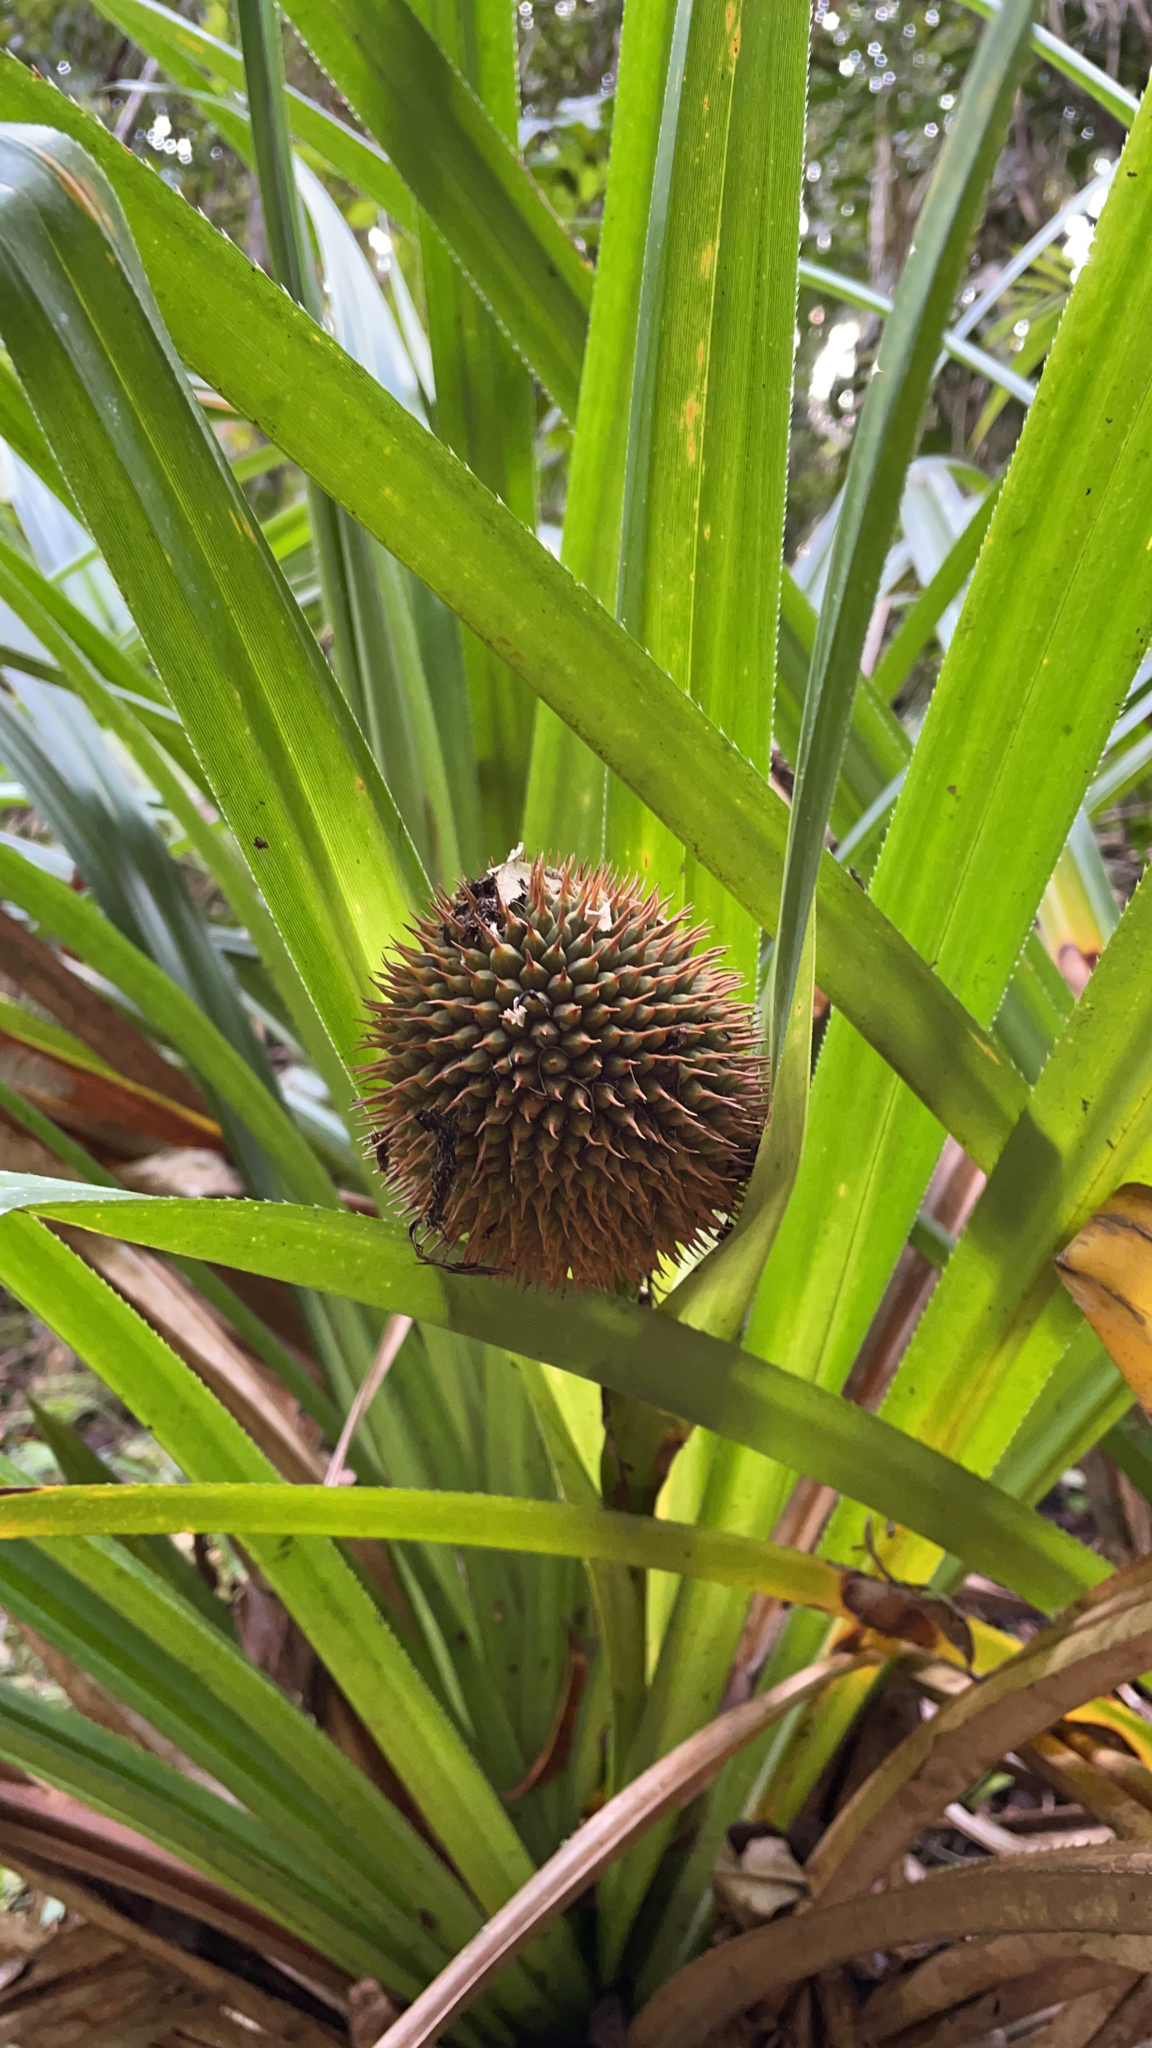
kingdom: Plantae
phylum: Tracheophyta
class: Liliopsida
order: Pandanales
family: Pandanaceae
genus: Benstonea
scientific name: Benstonea monticola
